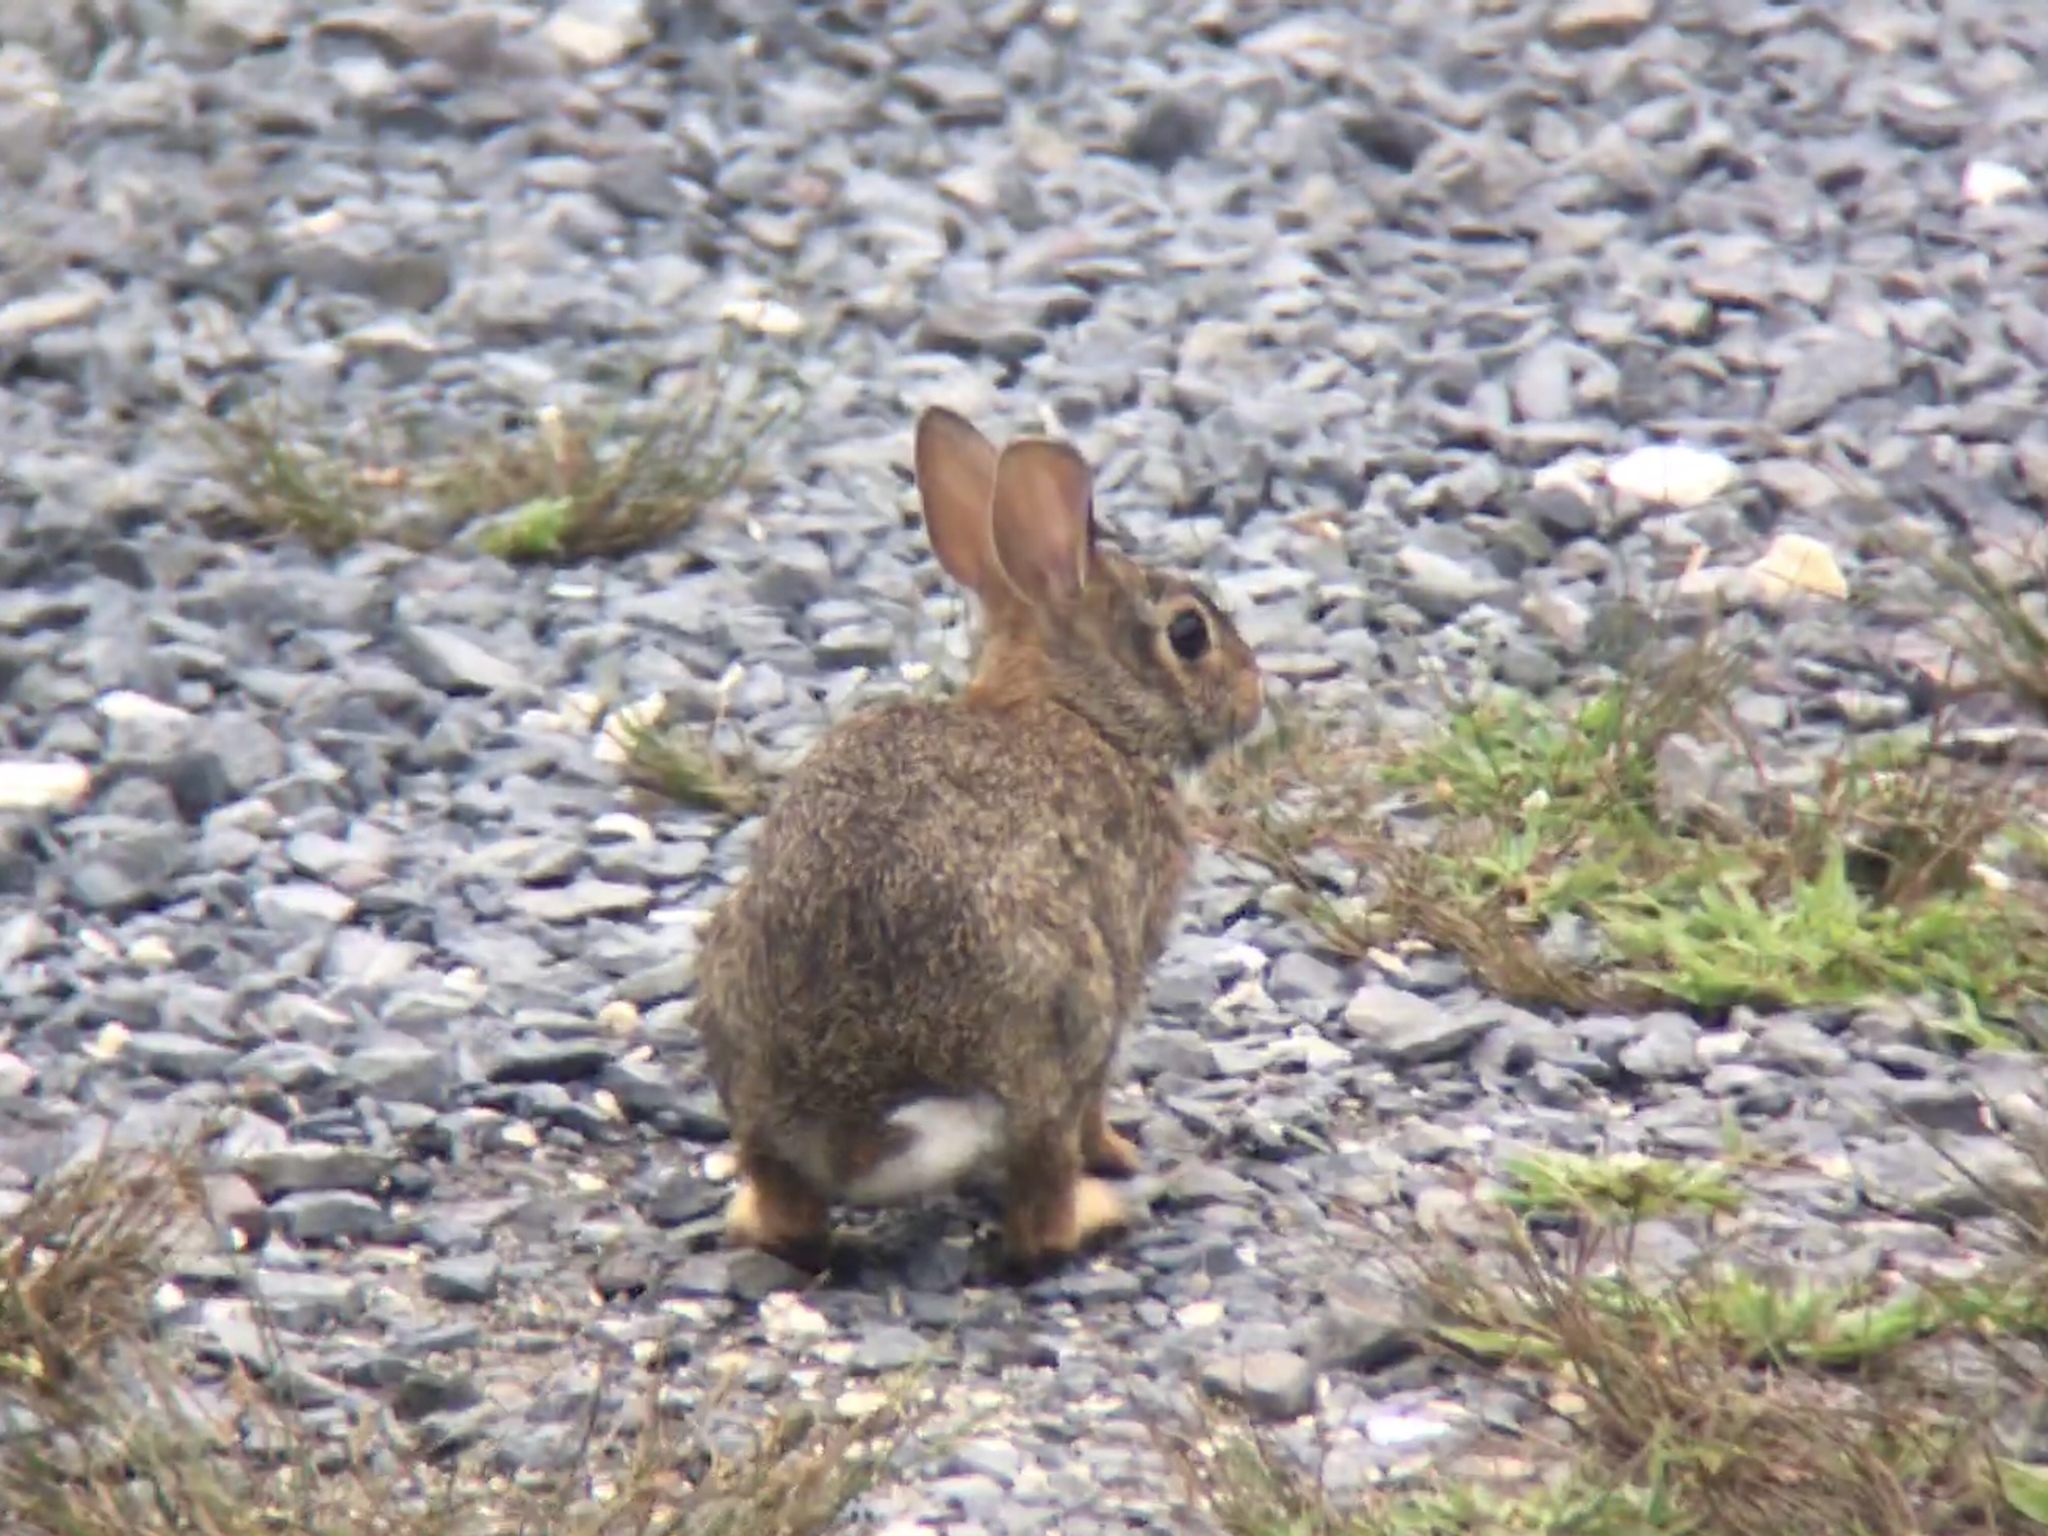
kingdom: Animalia
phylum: Chordata
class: Mammalia
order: Lagomorpha
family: Leporidae
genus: Sylvilagus
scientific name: Sylvilagus floridanus
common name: Eastern cottontail
